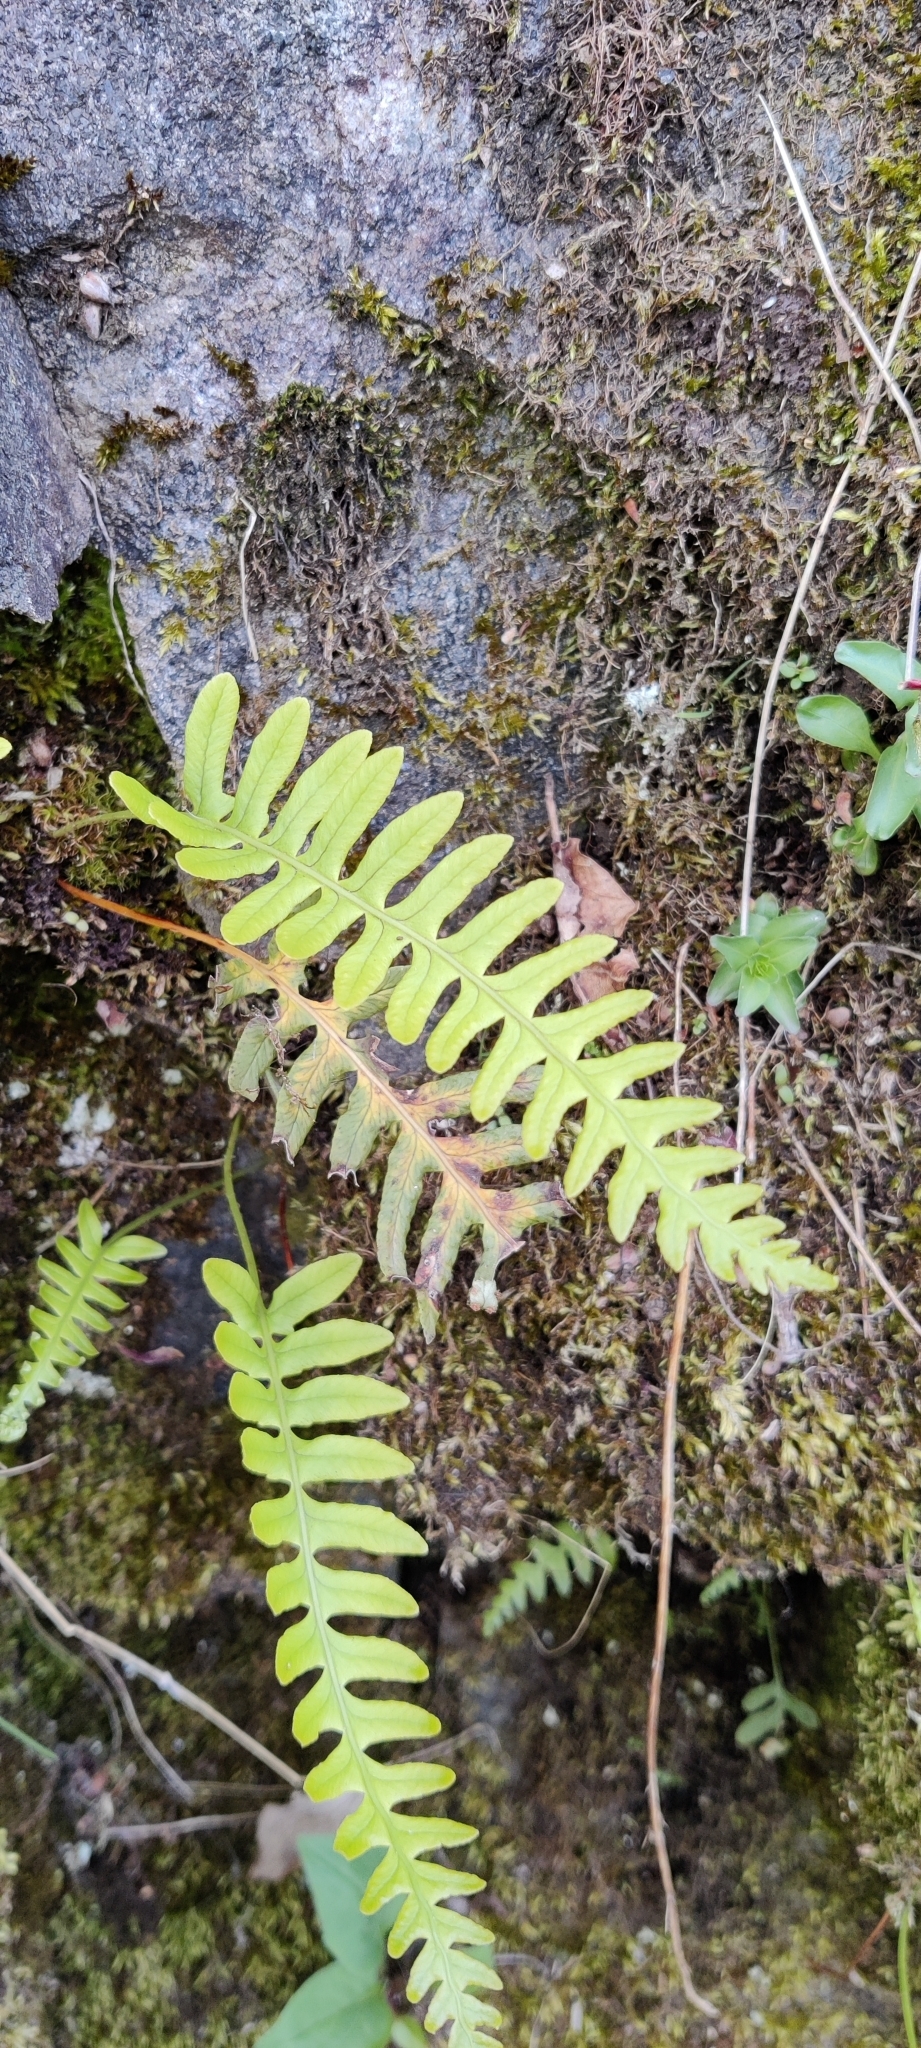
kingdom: Plantae
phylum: Tracheophyta
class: Polypodiopsida
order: Polypodiales
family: Polypodiaceae
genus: Polypodium
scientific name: Polypodium vulgare
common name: Common polypody
